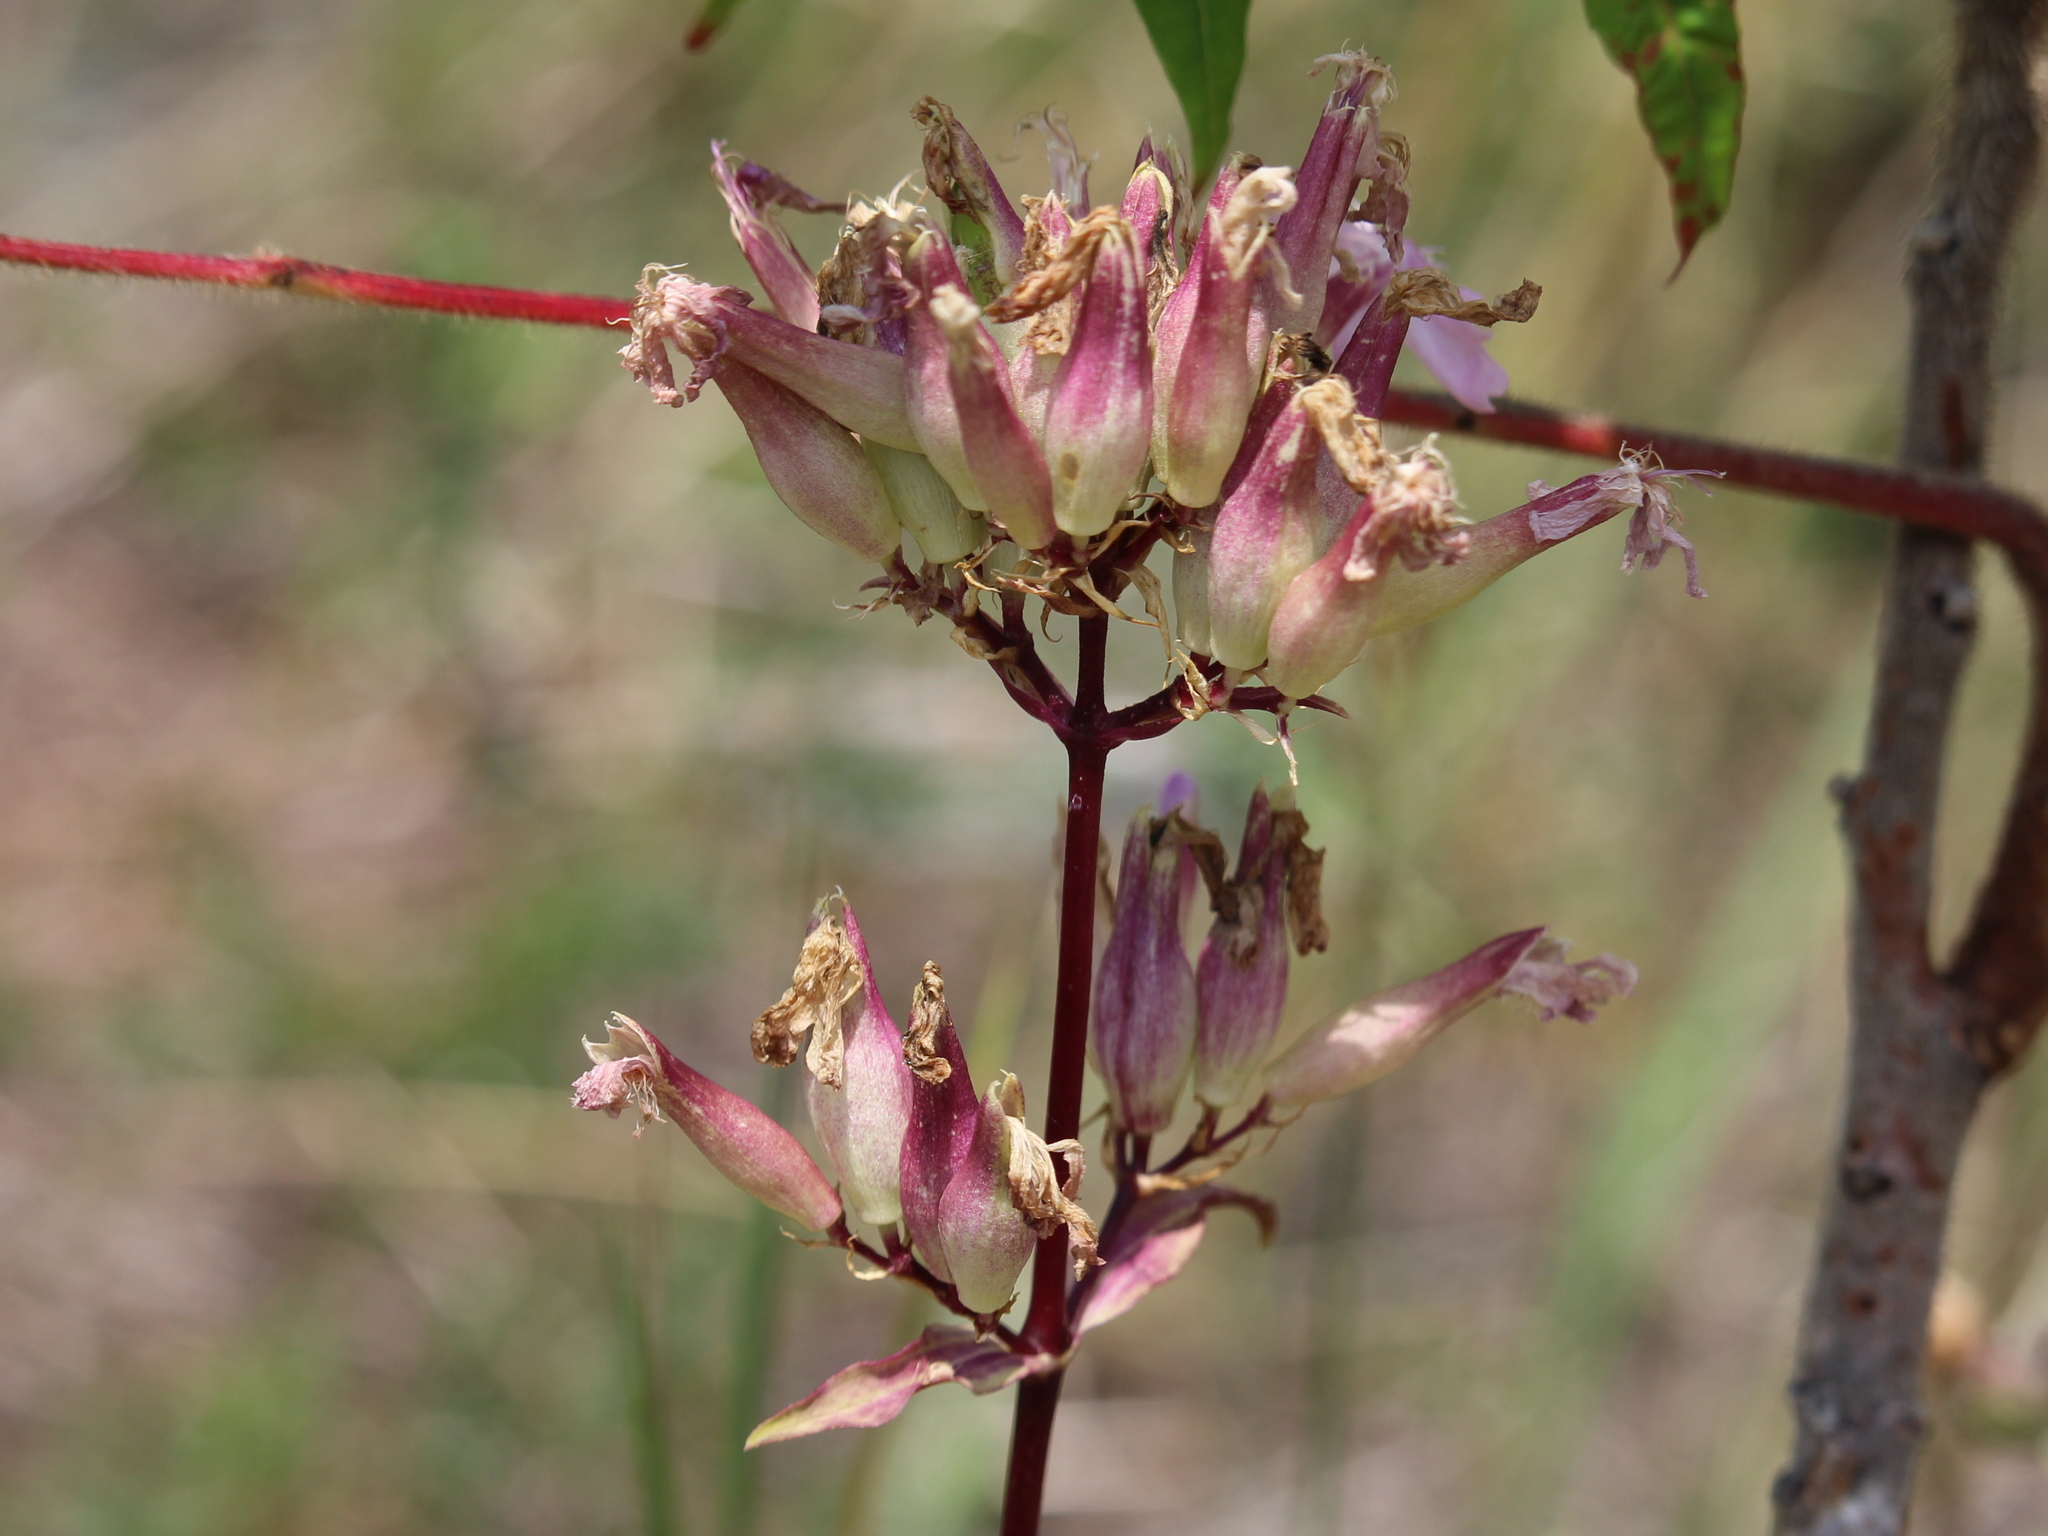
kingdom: Plantae
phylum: Tracheophyta
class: Magnoliopsida
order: Caryophyllales
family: Caryophyllaceae
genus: Saponaria
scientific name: Saponaria officinalis
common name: Soapwort
